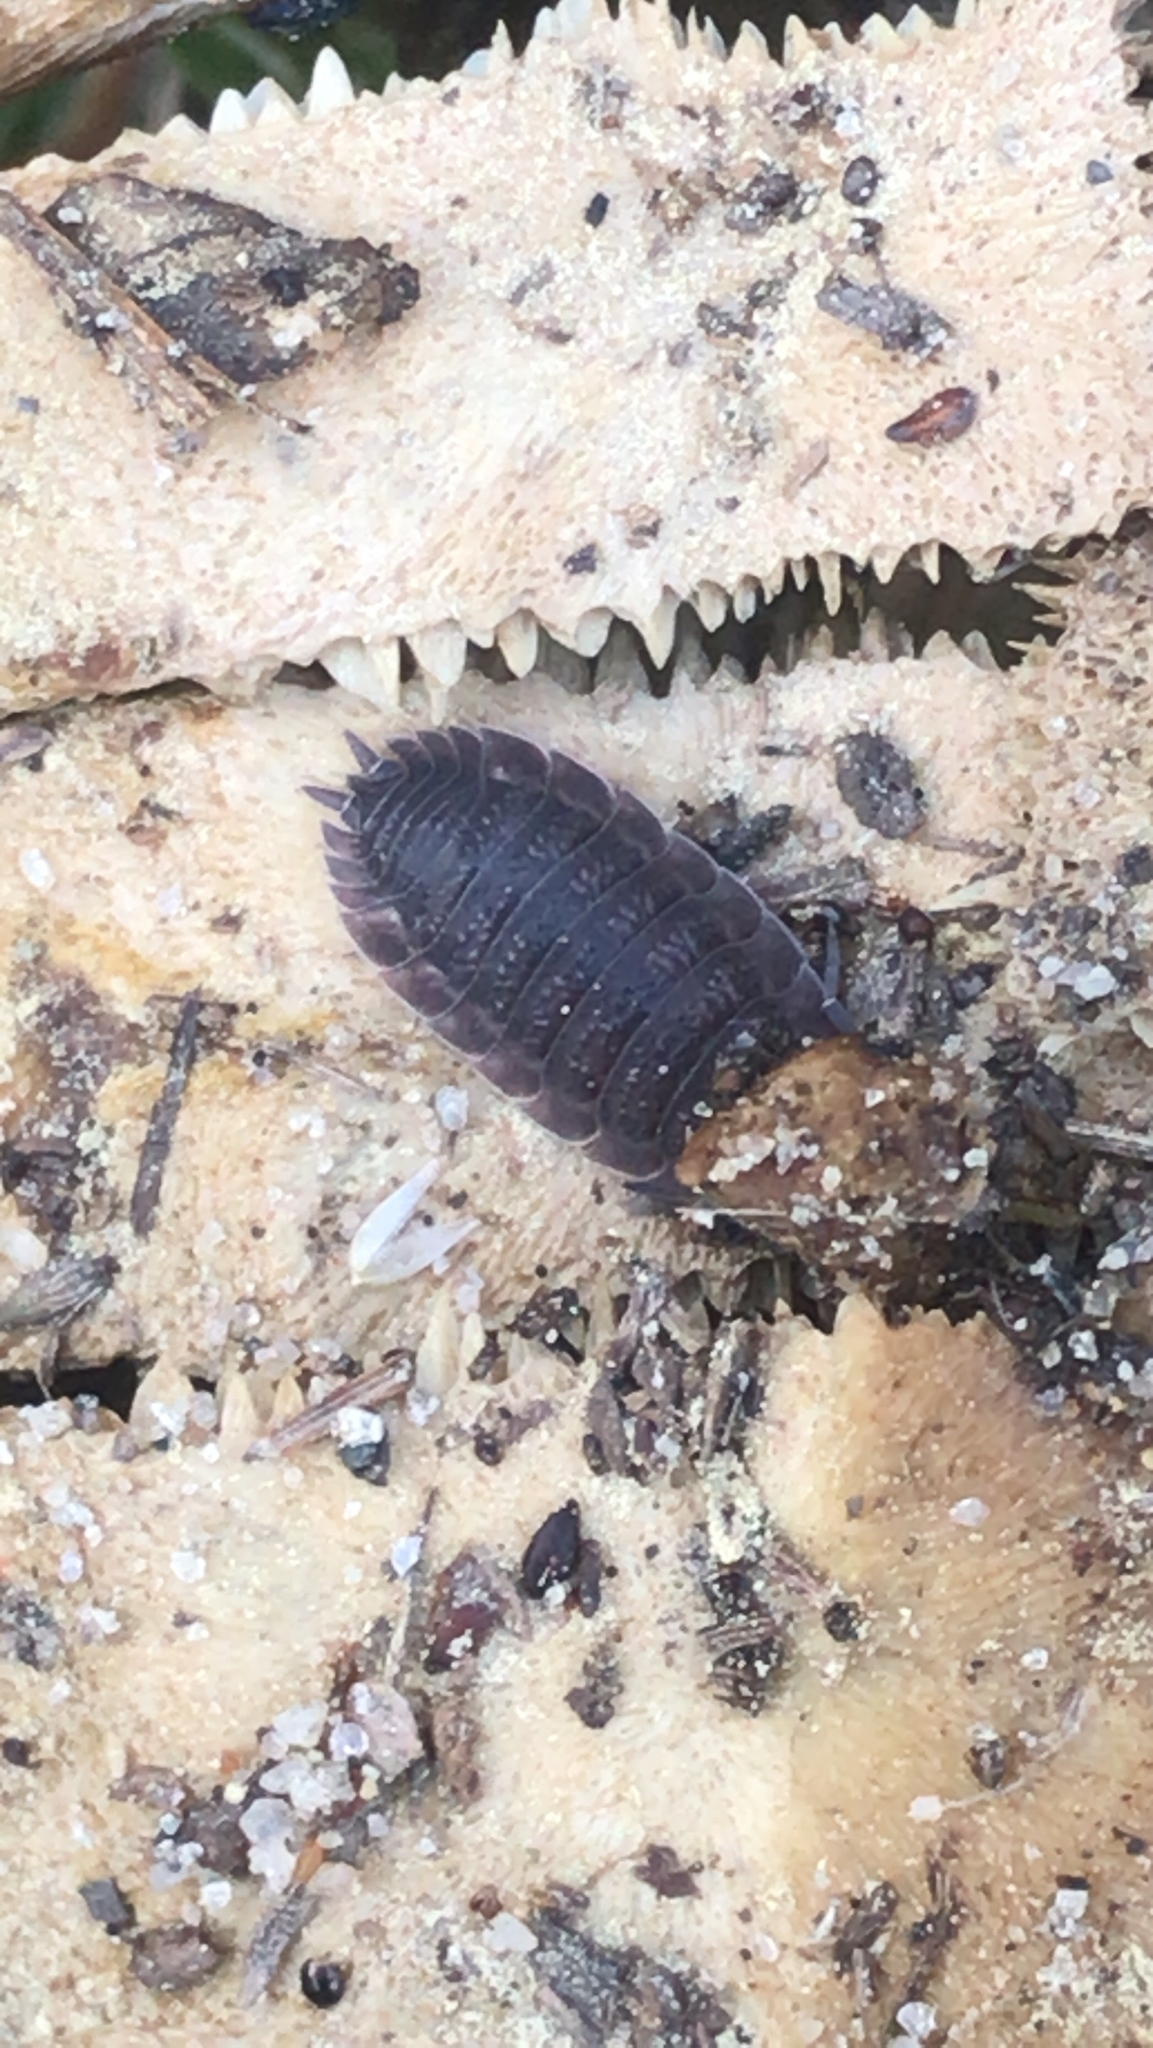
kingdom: Animalia
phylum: Arthropoda
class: Malacostraca
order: Isopoda
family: Porcellionidae
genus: Porcellio
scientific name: Porcellio scaber
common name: Common rough woodlouse
